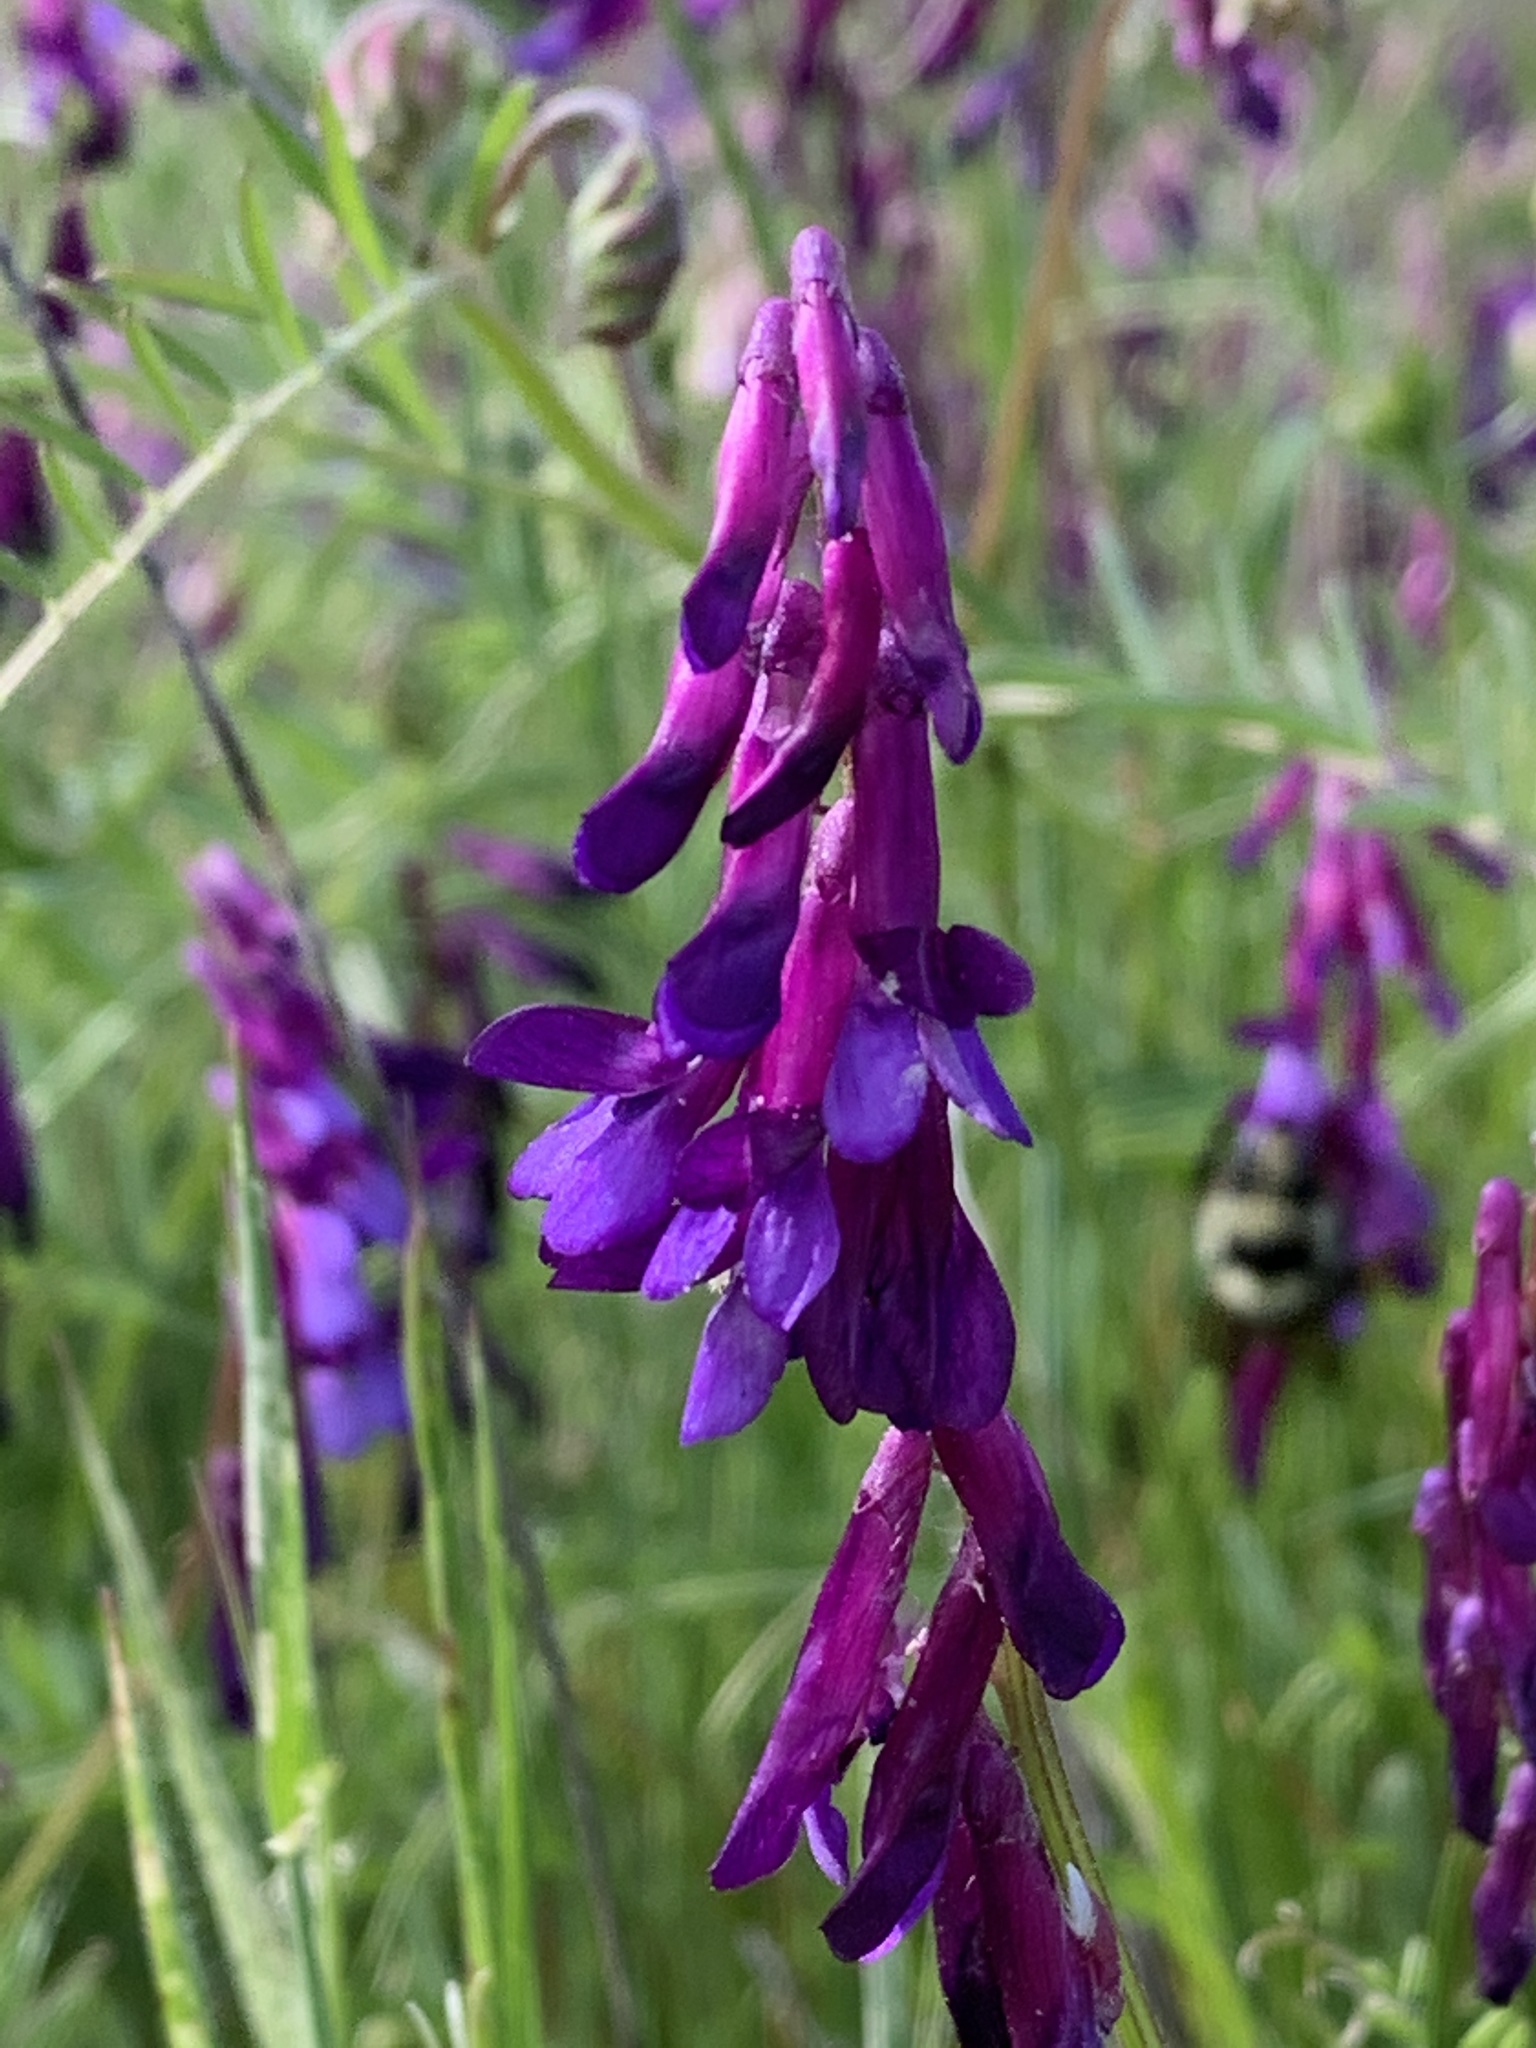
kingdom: Plantae
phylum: Tracheophyta
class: Magnoliopsida
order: Fabales
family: Fabaceae
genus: Vicia
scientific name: Vicia villosa
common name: Fodder vetch
